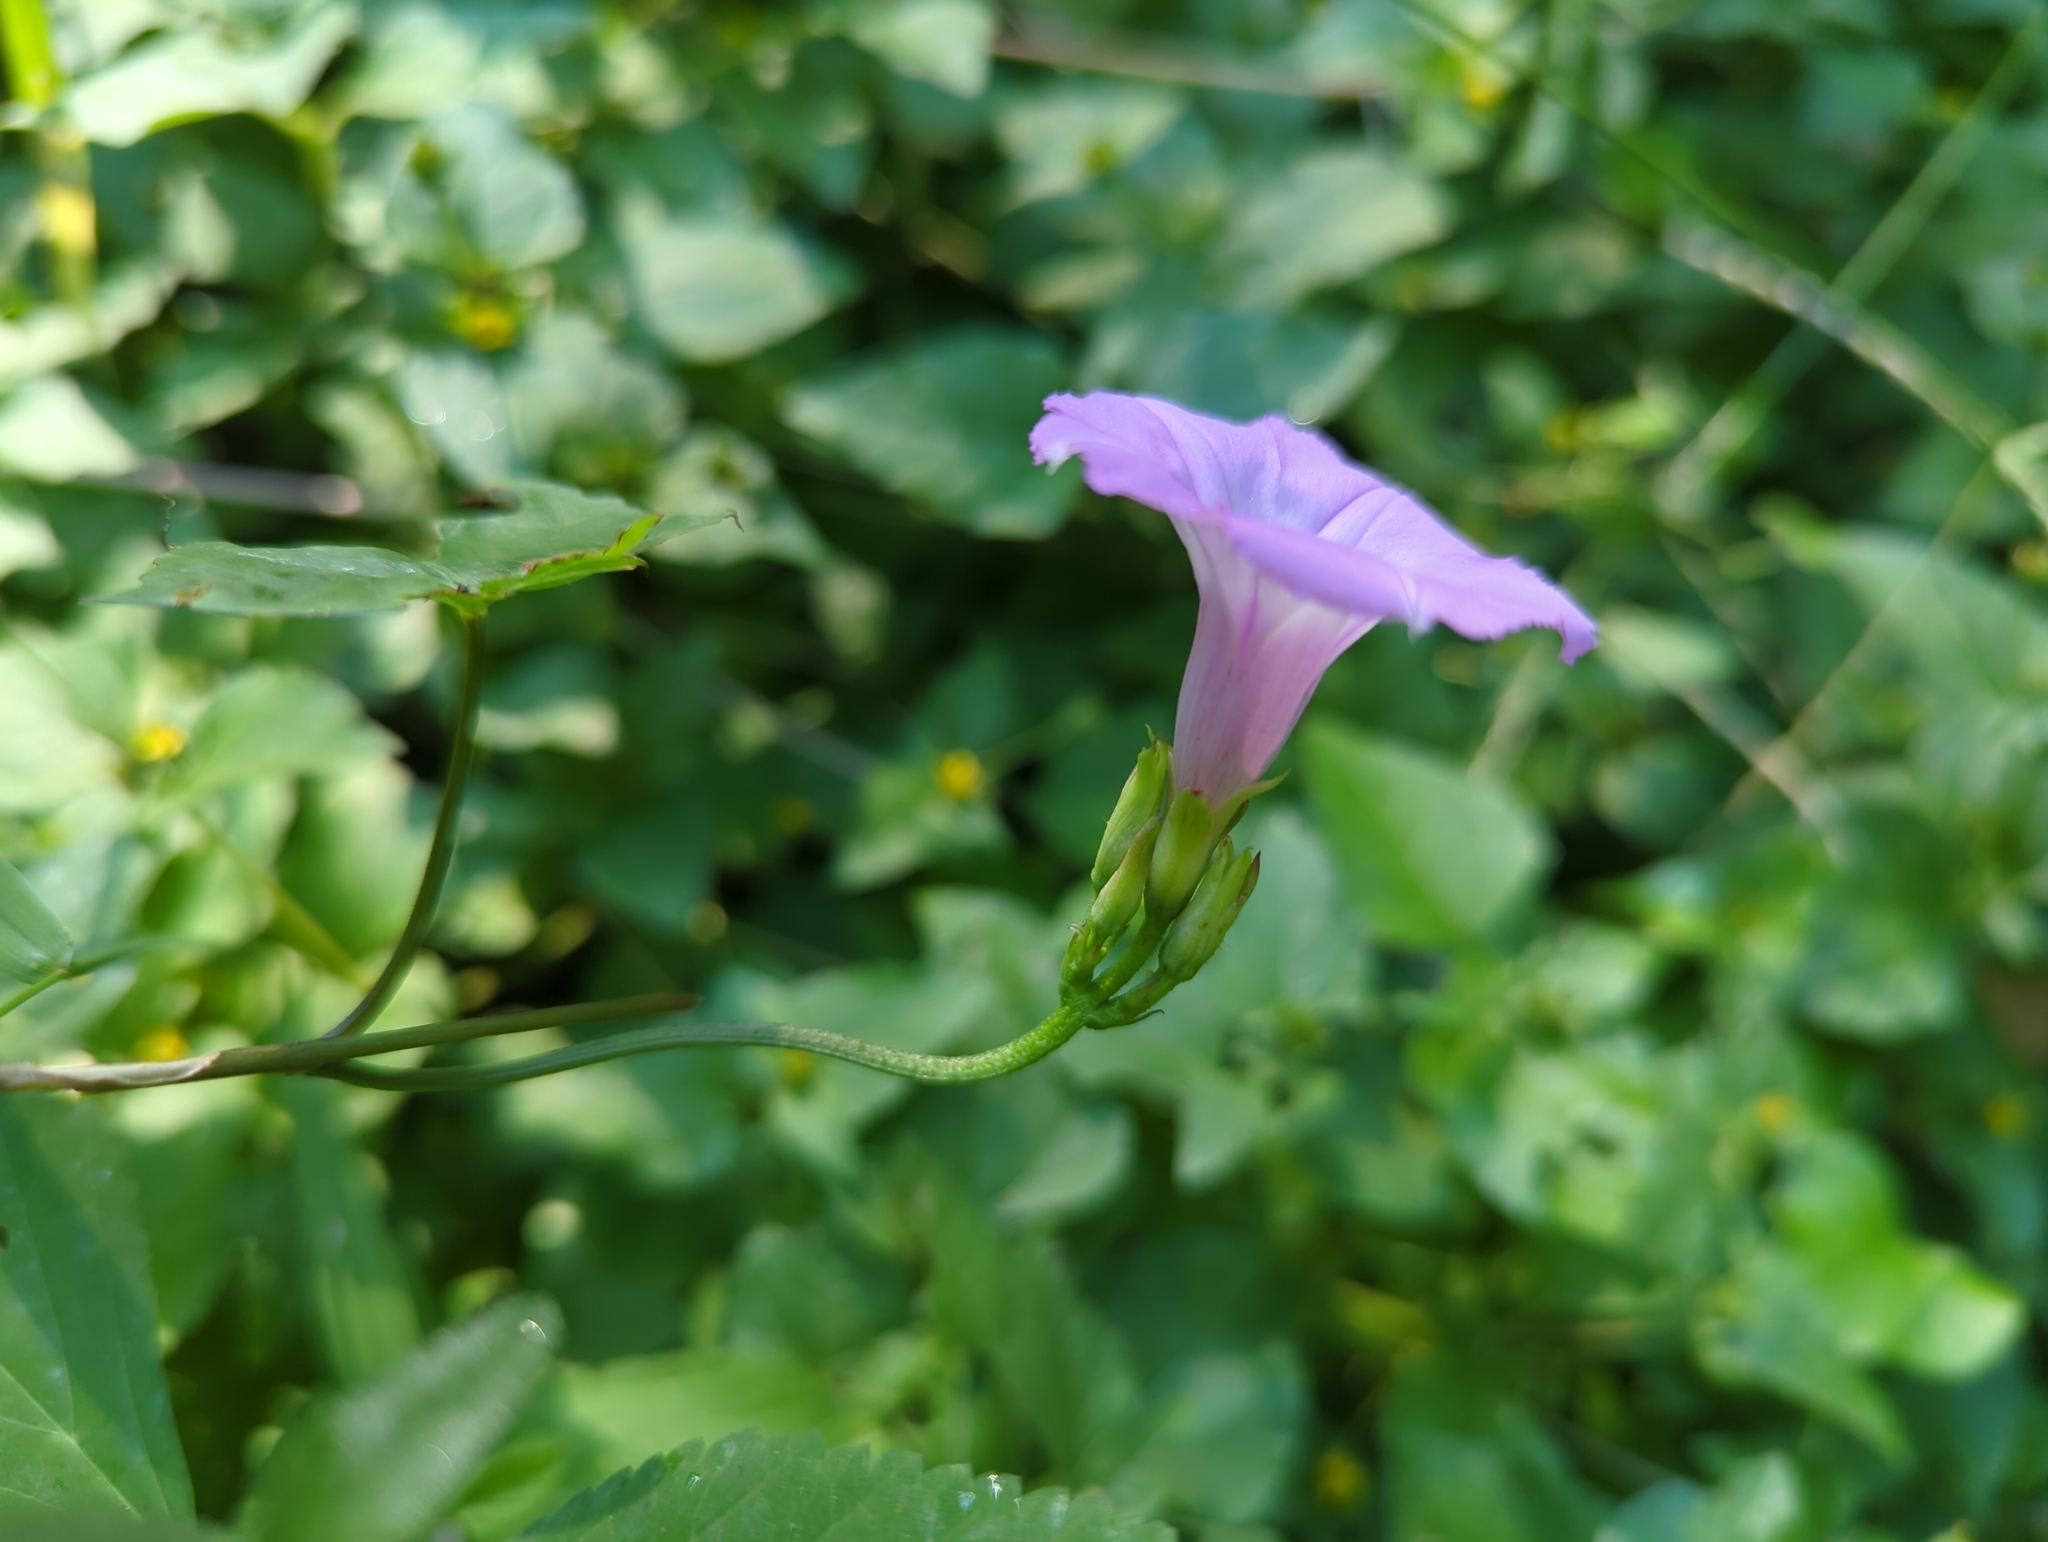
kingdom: Plantae
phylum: Tracheophyta
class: Magnoliopsida
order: Solanales
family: Convolvulaceae
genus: Ipomoea
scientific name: Ipomoea cordatotriloba
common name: Cotton morning glory
